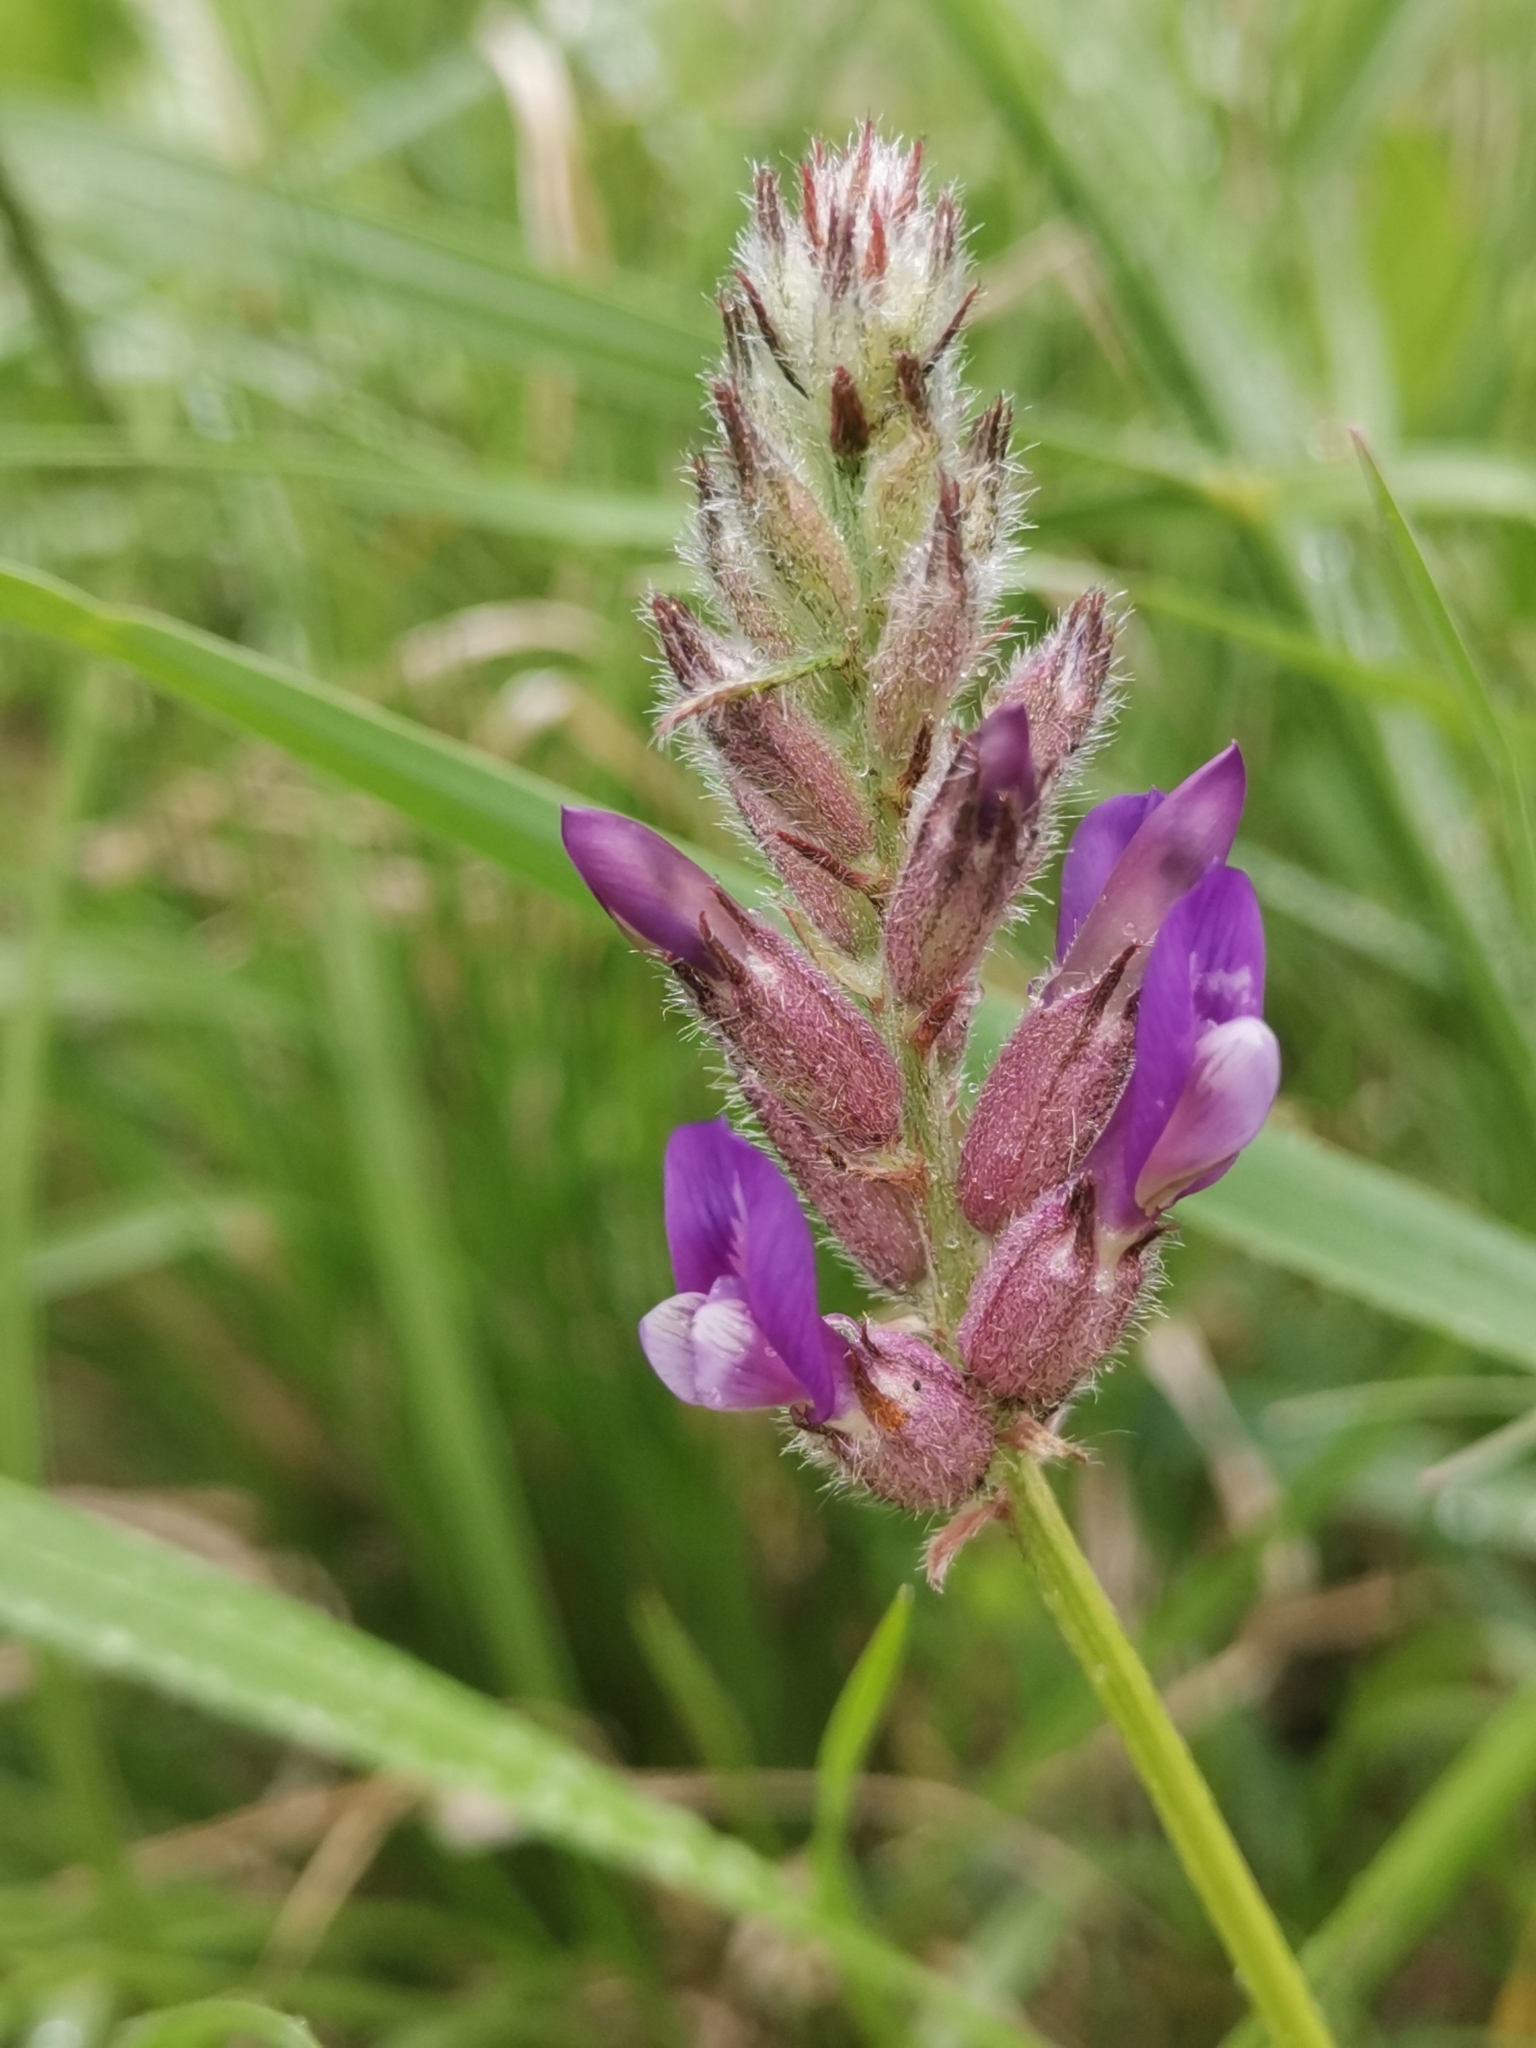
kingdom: Plantae
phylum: Tracheophyta
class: Magnoliopsida
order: Fabales
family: Fabaceae
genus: Astragalus
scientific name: Astragalus vesicarius
